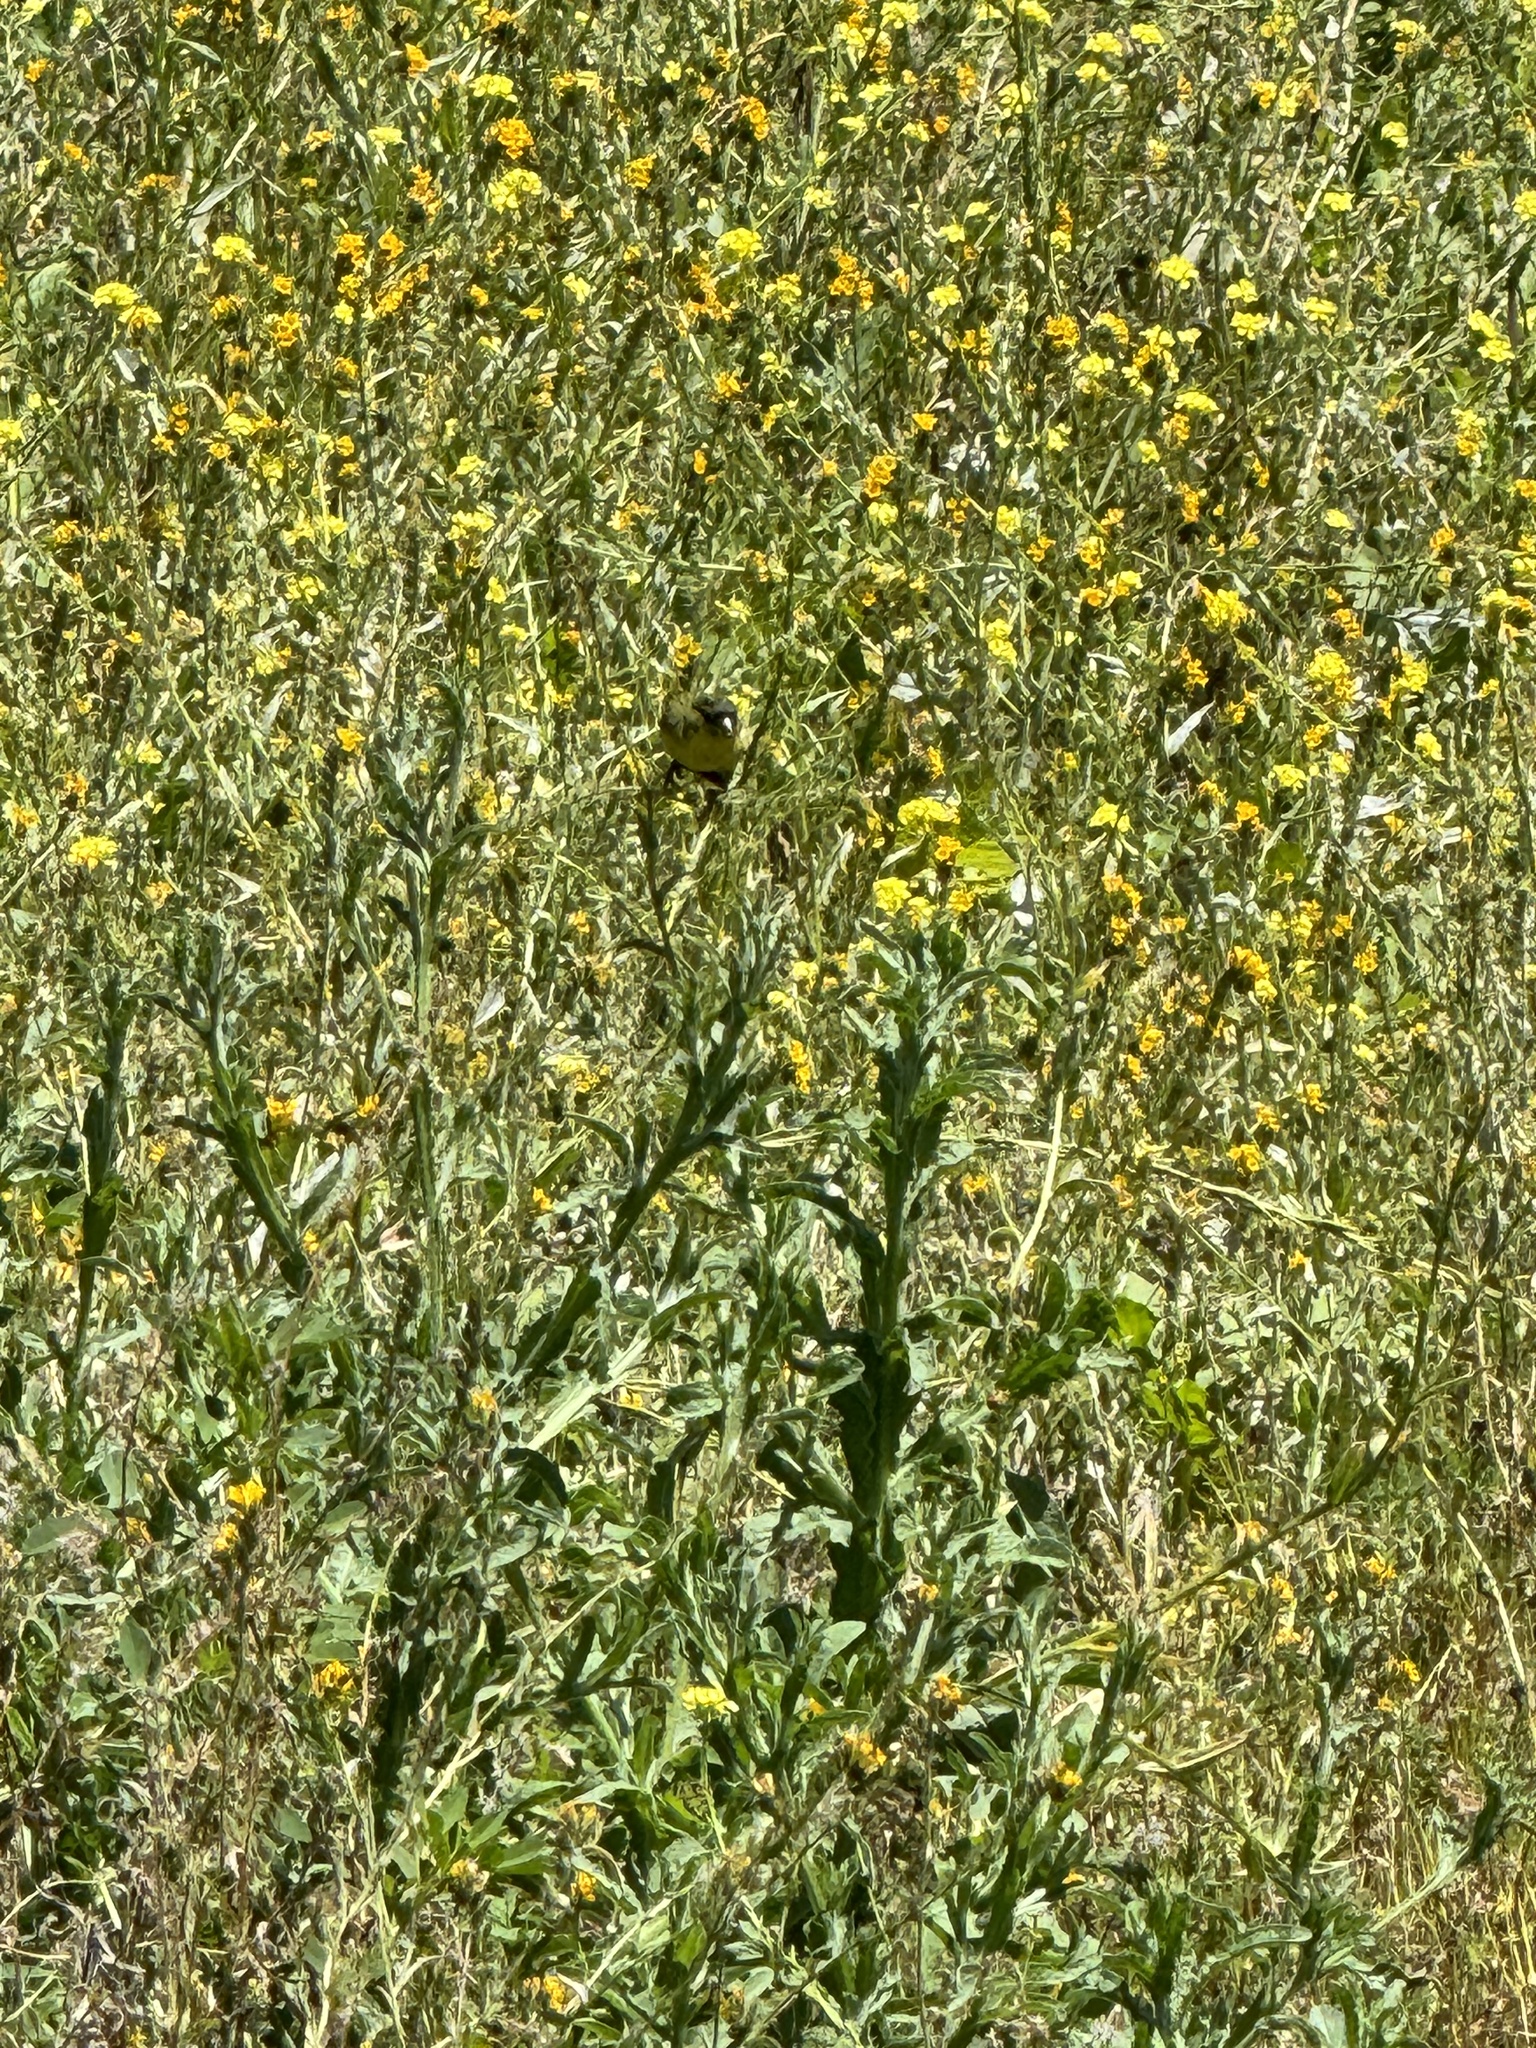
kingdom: Animalia
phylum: Chordata
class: Aves
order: Passeriformes
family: Fringillidae
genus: Spinus
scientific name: Spinus psaltria
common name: Lesser goldfinch
